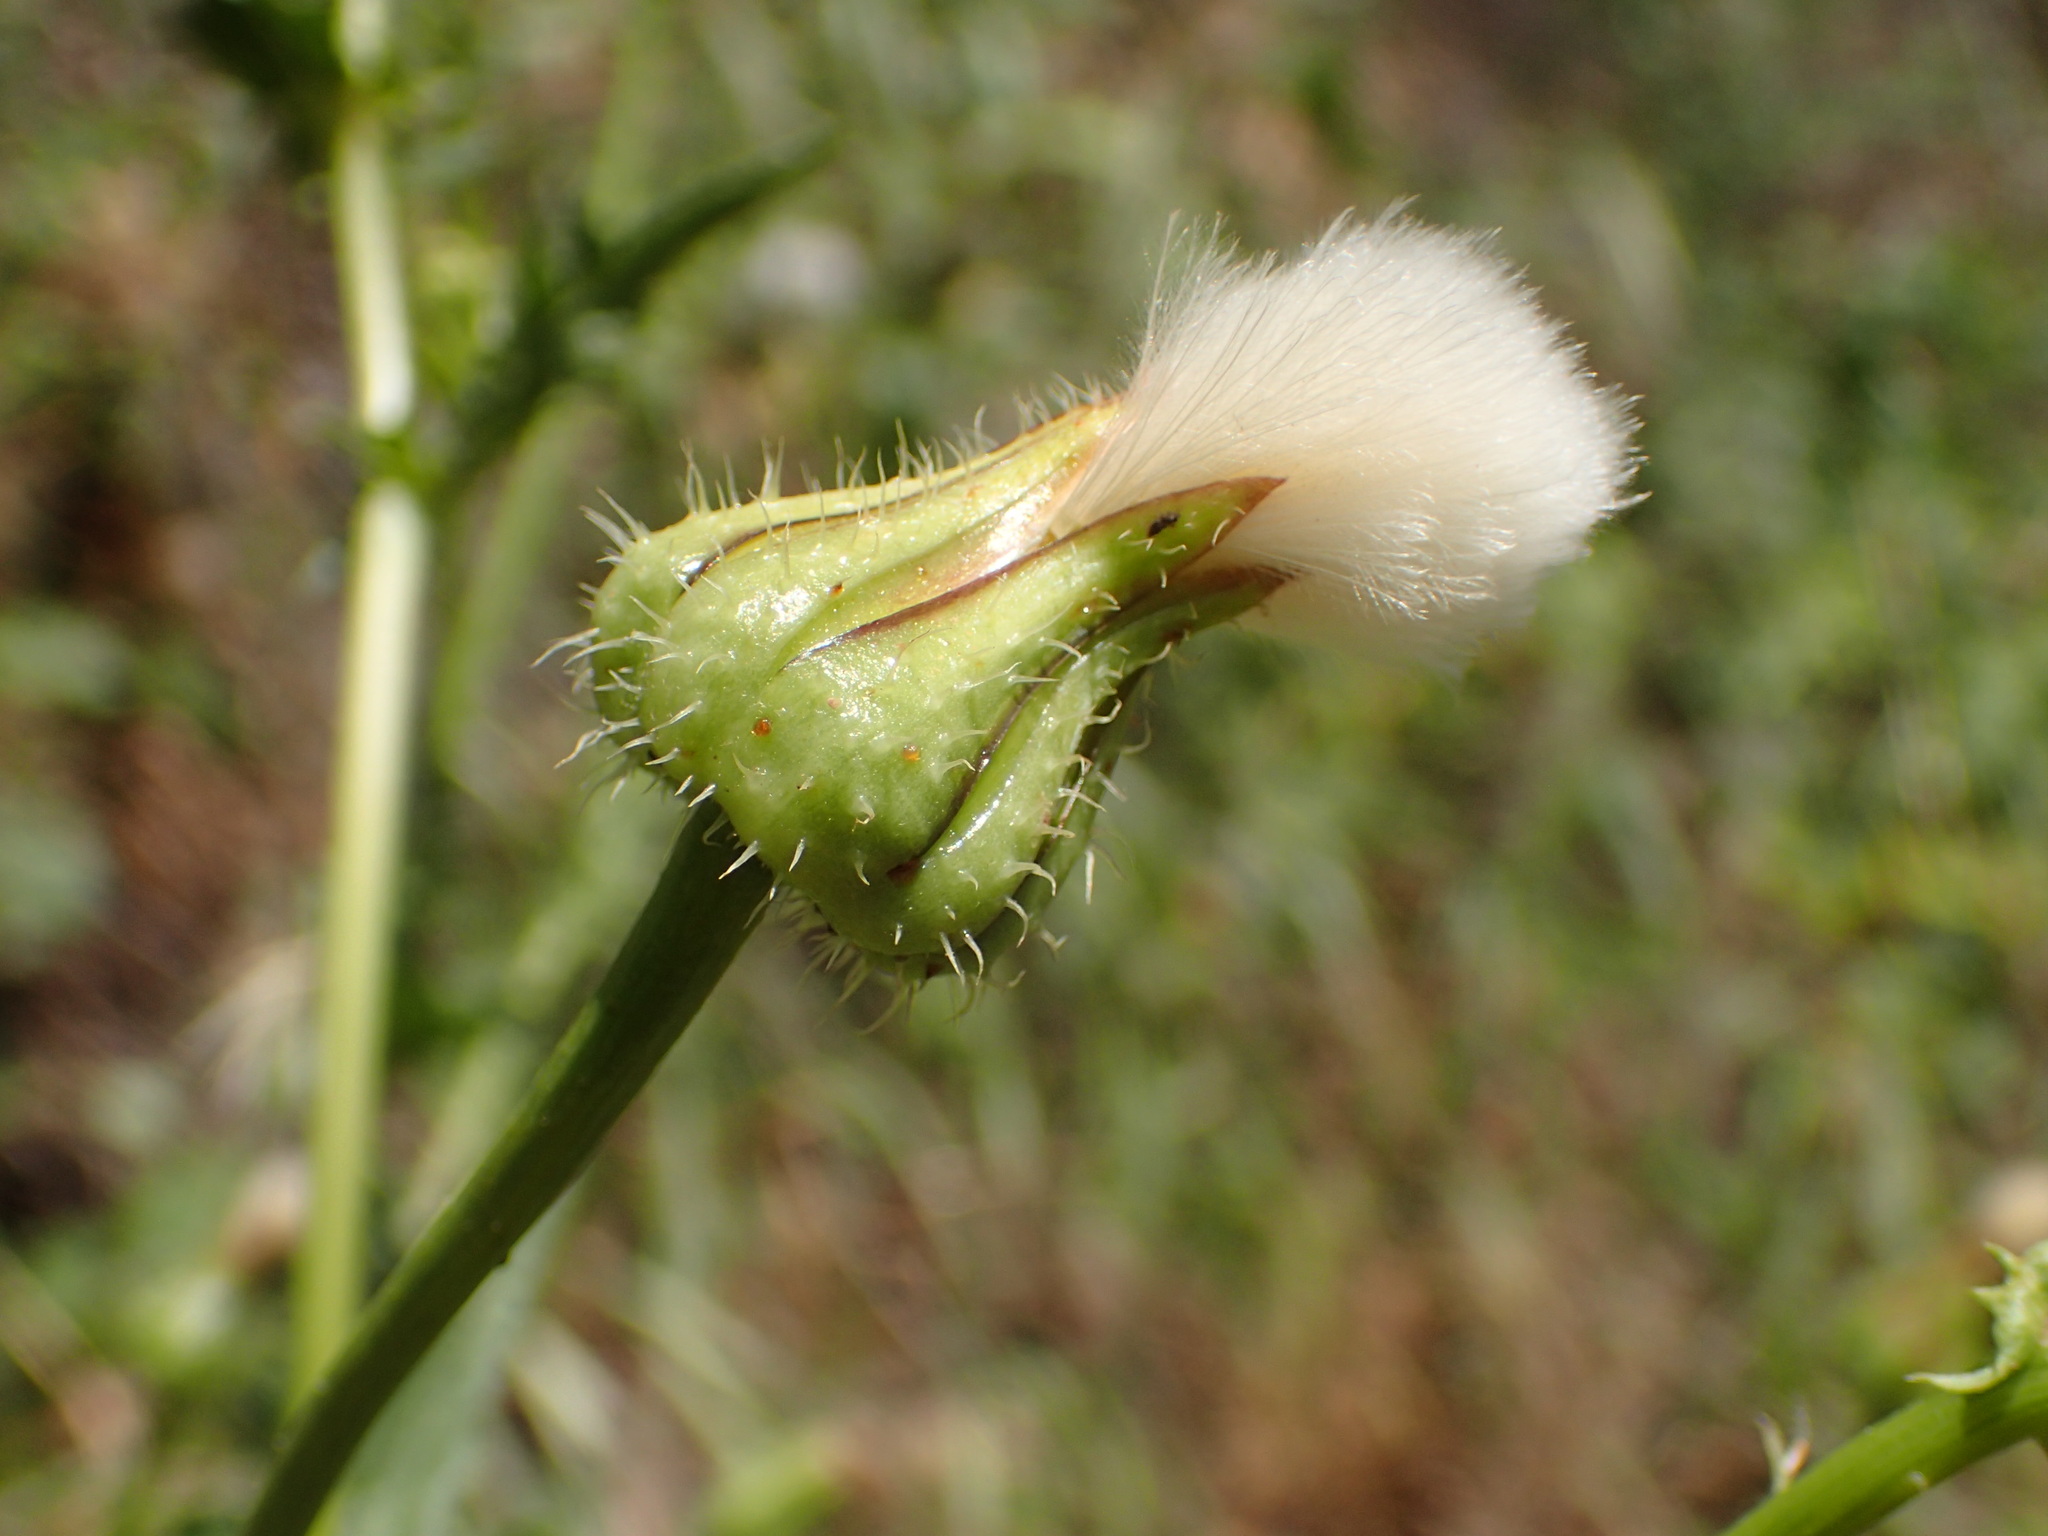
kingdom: Plantae
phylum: Tracheophyta
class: Magnoliopsida
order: Asterales
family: Asteraceae
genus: Urospermum
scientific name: Urospermum picroides
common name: False hawkbit
